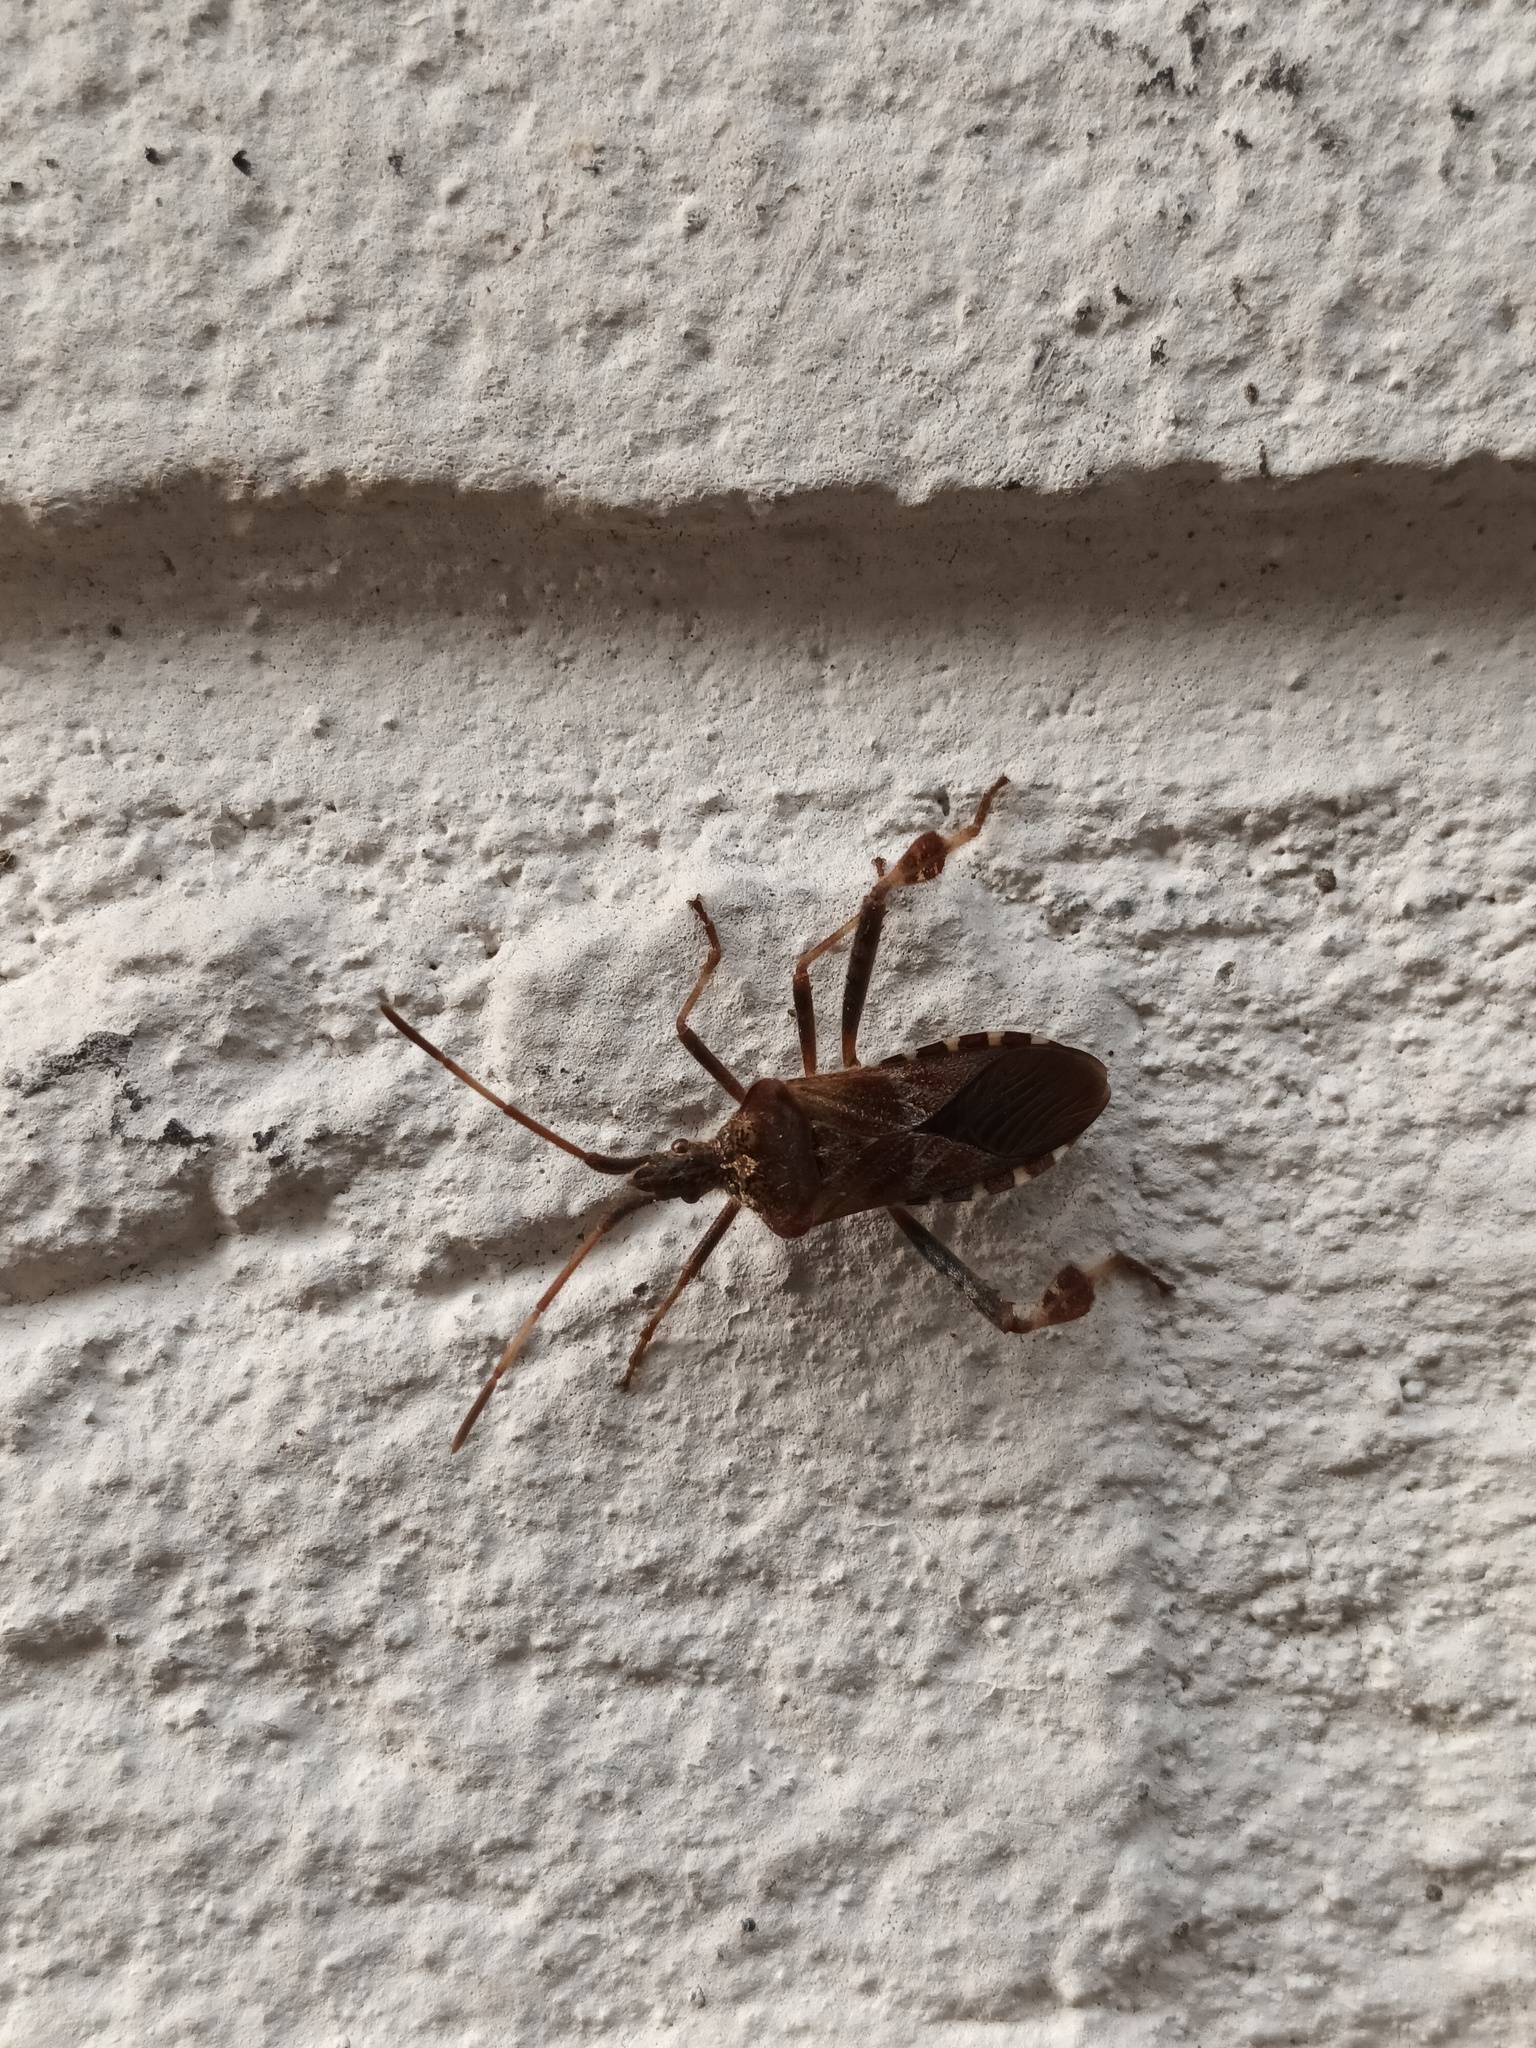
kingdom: Animalia
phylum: Arthropoda
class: Insecta
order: Hemiptera
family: Coreidae
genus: Leptoglossus
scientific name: Leptoglossus occidentalis
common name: Western conifer-seed bug
